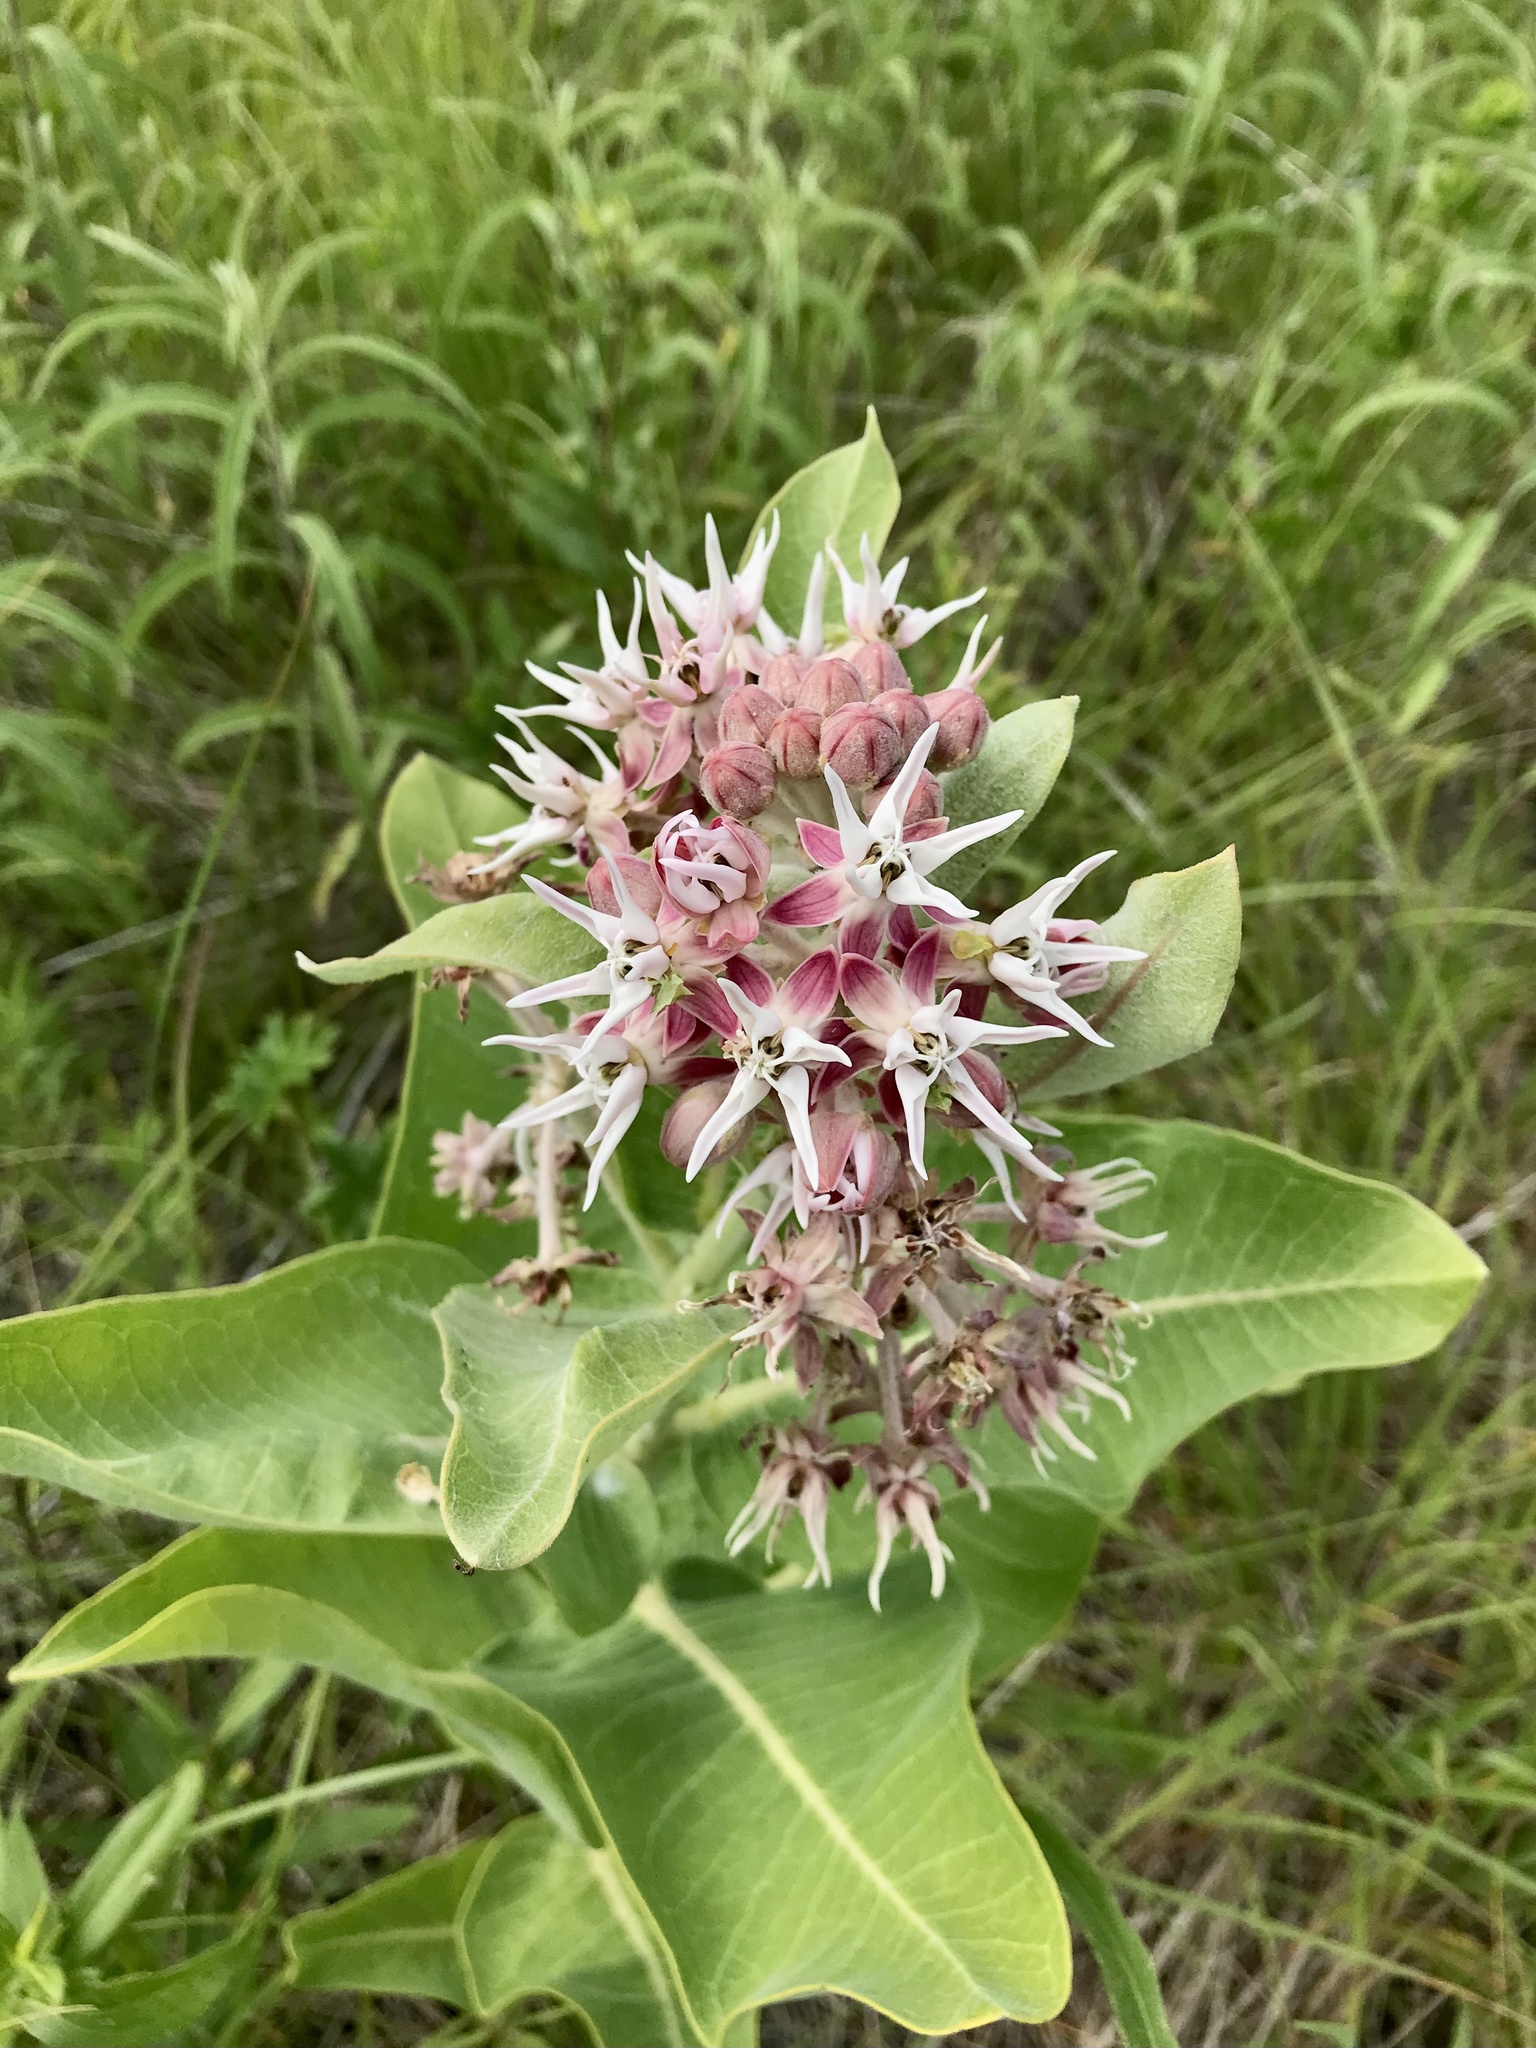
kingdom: Plantae
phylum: Tracheophyta
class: Magnoliopsida
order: Gentianales
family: Apocynaceae
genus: Asclepias
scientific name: Asclepias speciosa
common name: Showy milkweed
